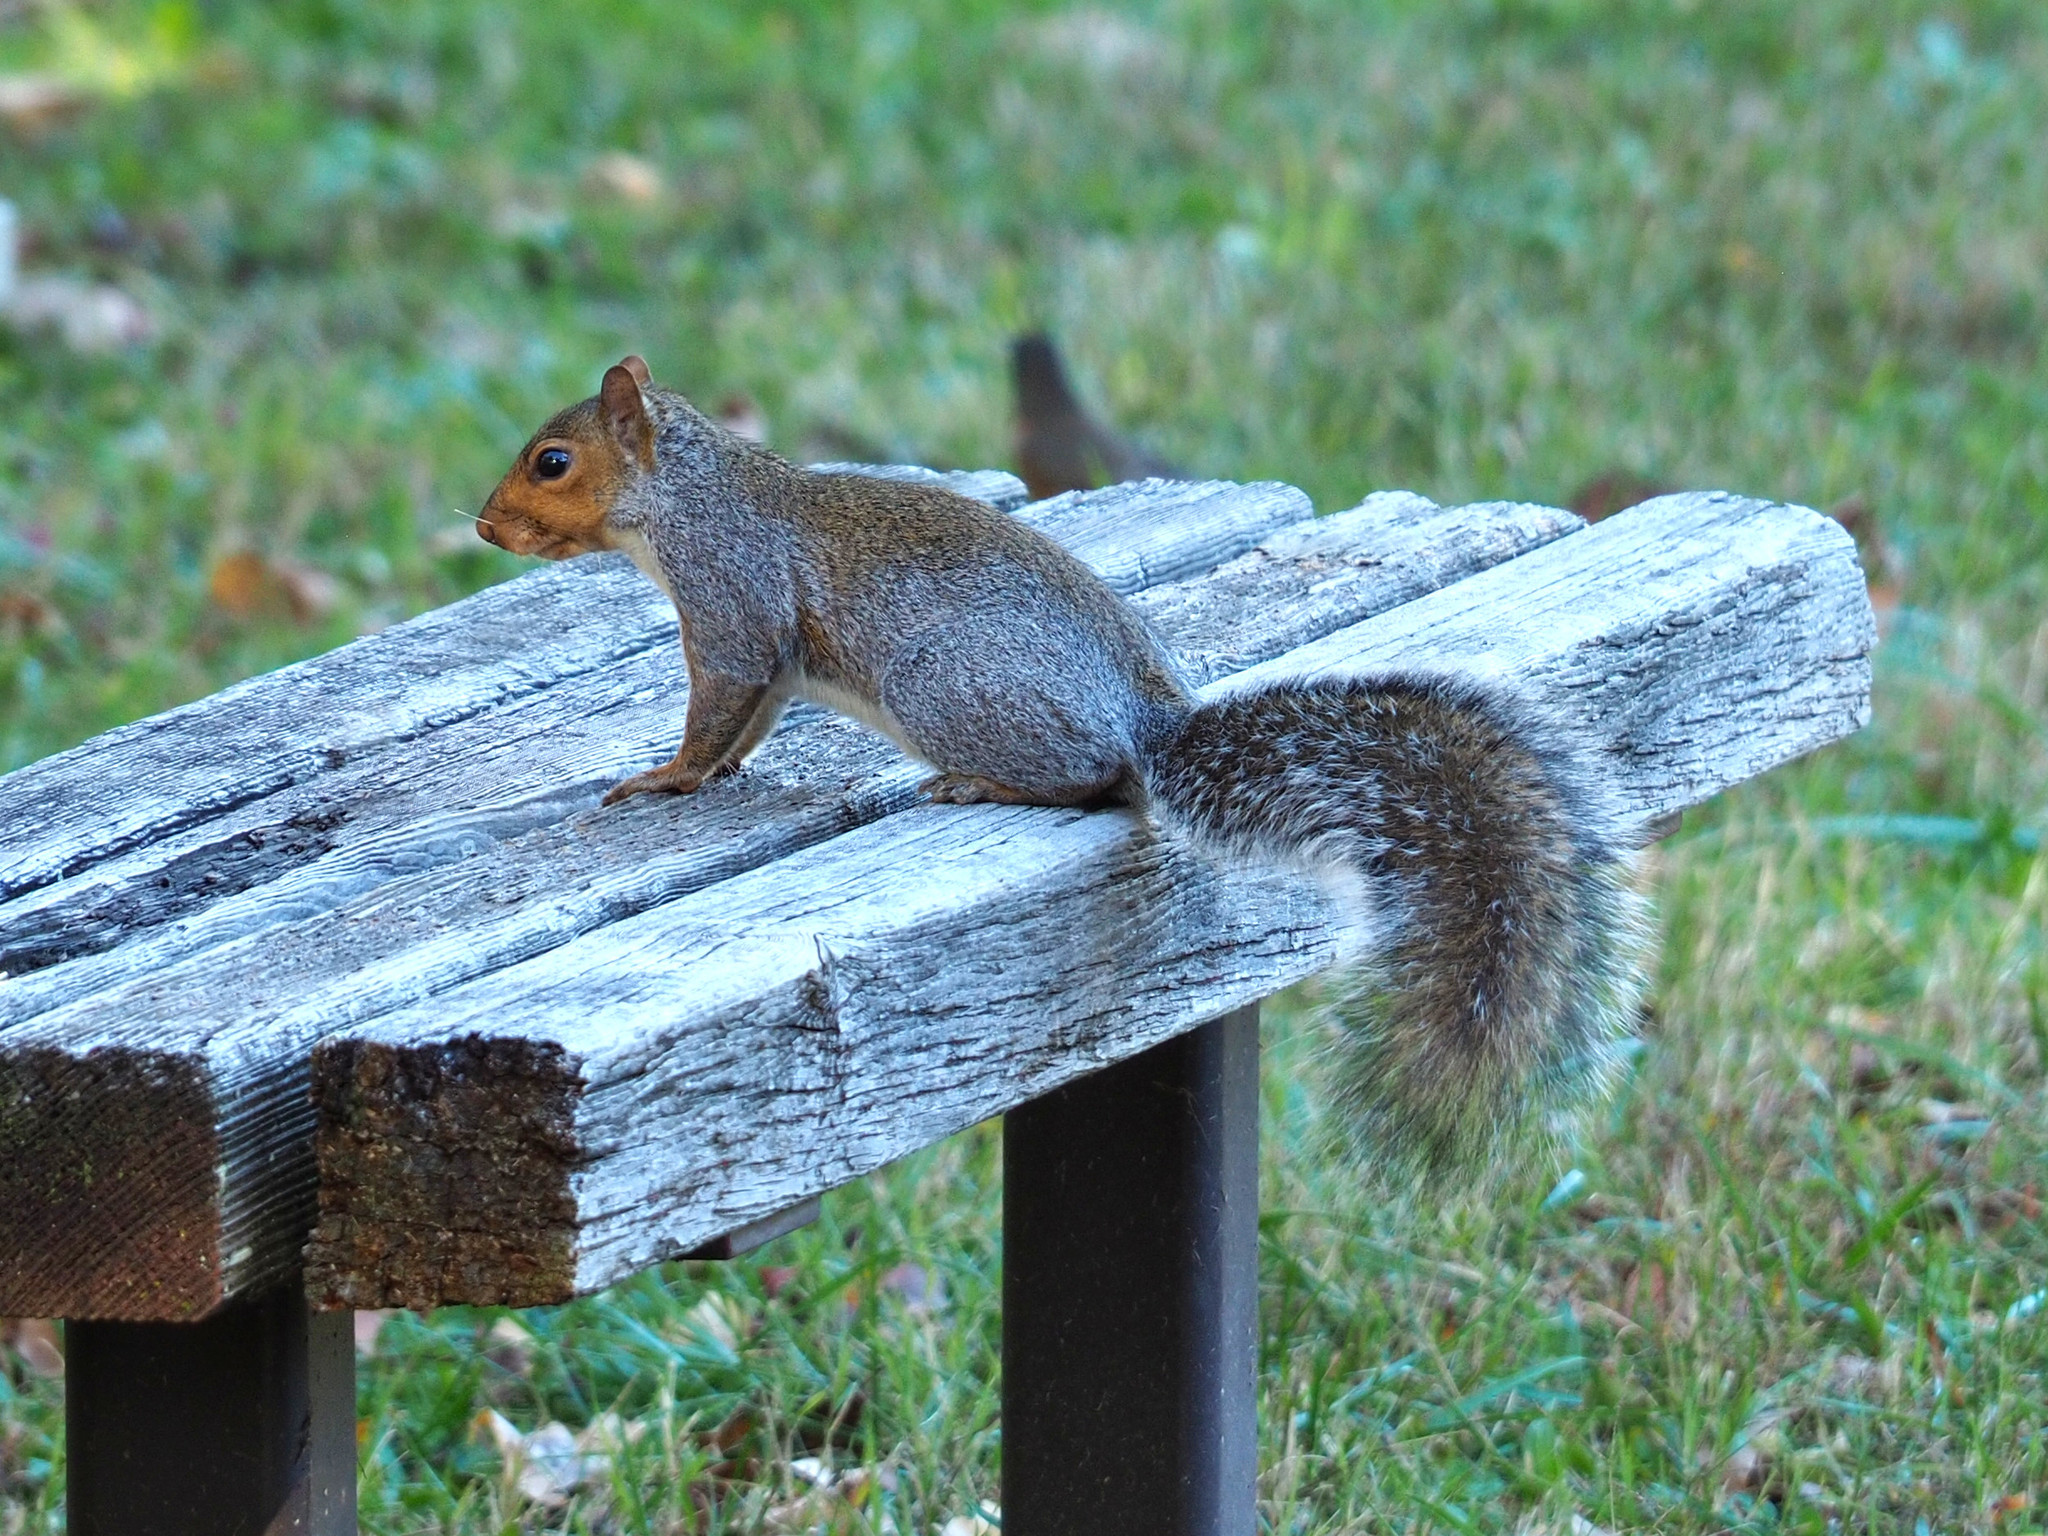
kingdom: Animalia
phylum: Chordata
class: Mammalia
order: Rodentia
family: Sciuridae
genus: Sciurus
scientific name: Sciurus carolinensis
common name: Eastern gray squirrel
